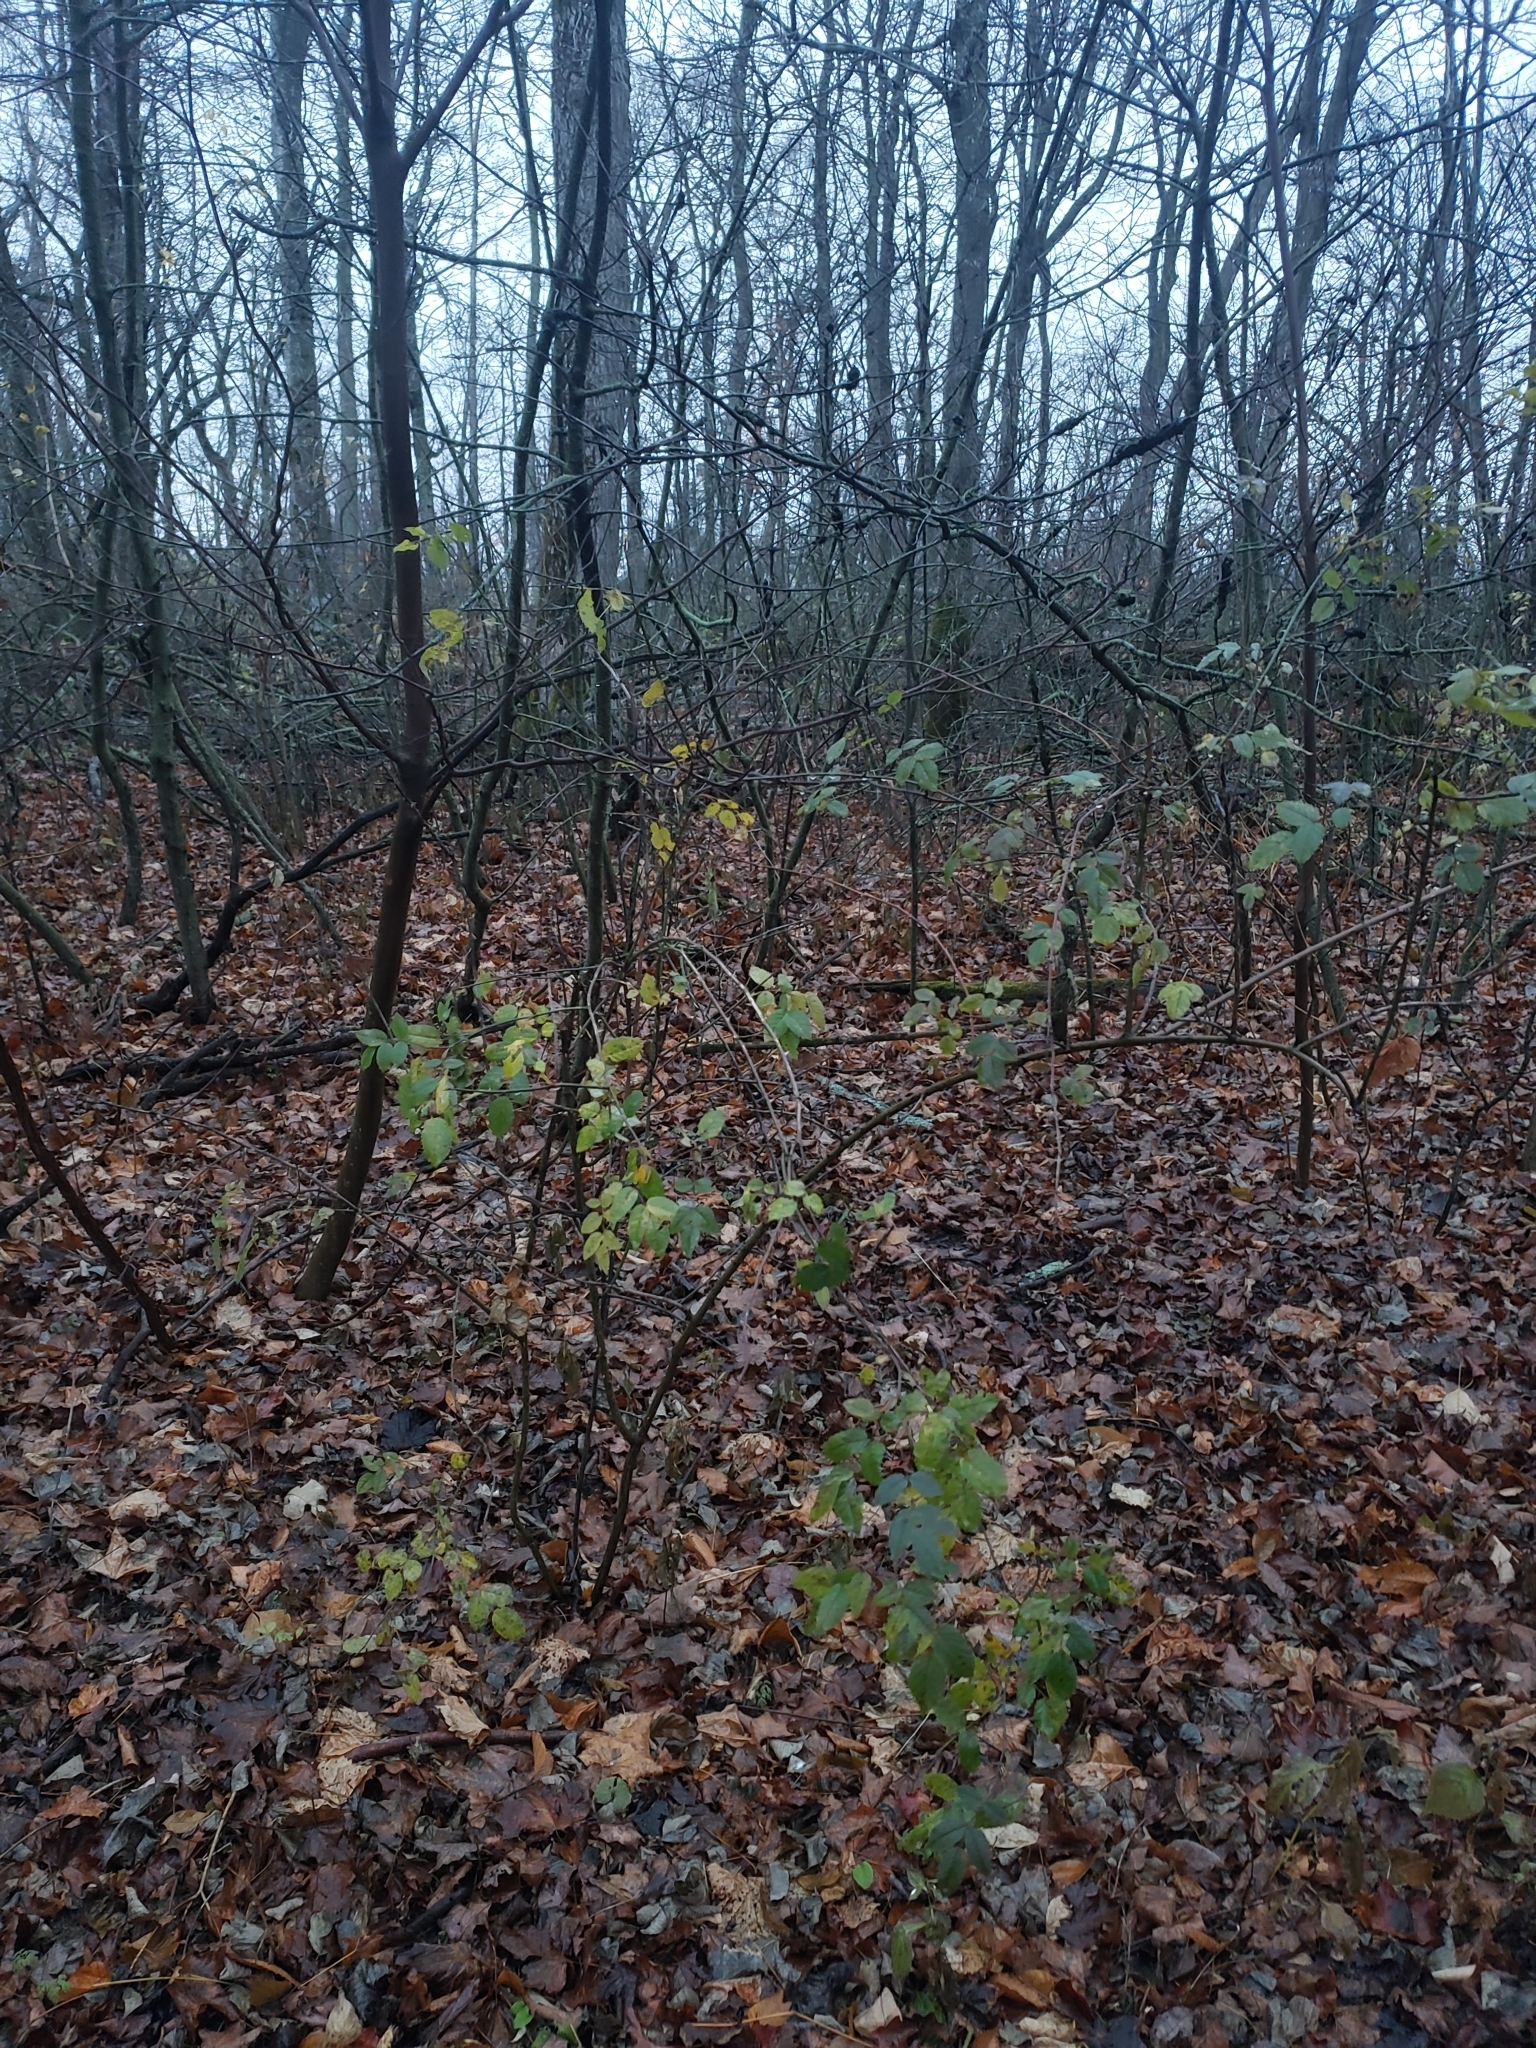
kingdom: Plantae
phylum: Tracheophyta
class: Magnoliopsida
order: Rosales
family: Rosaceae
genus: Rosa
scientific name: Rosa multiflora
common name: Multiflora rose
